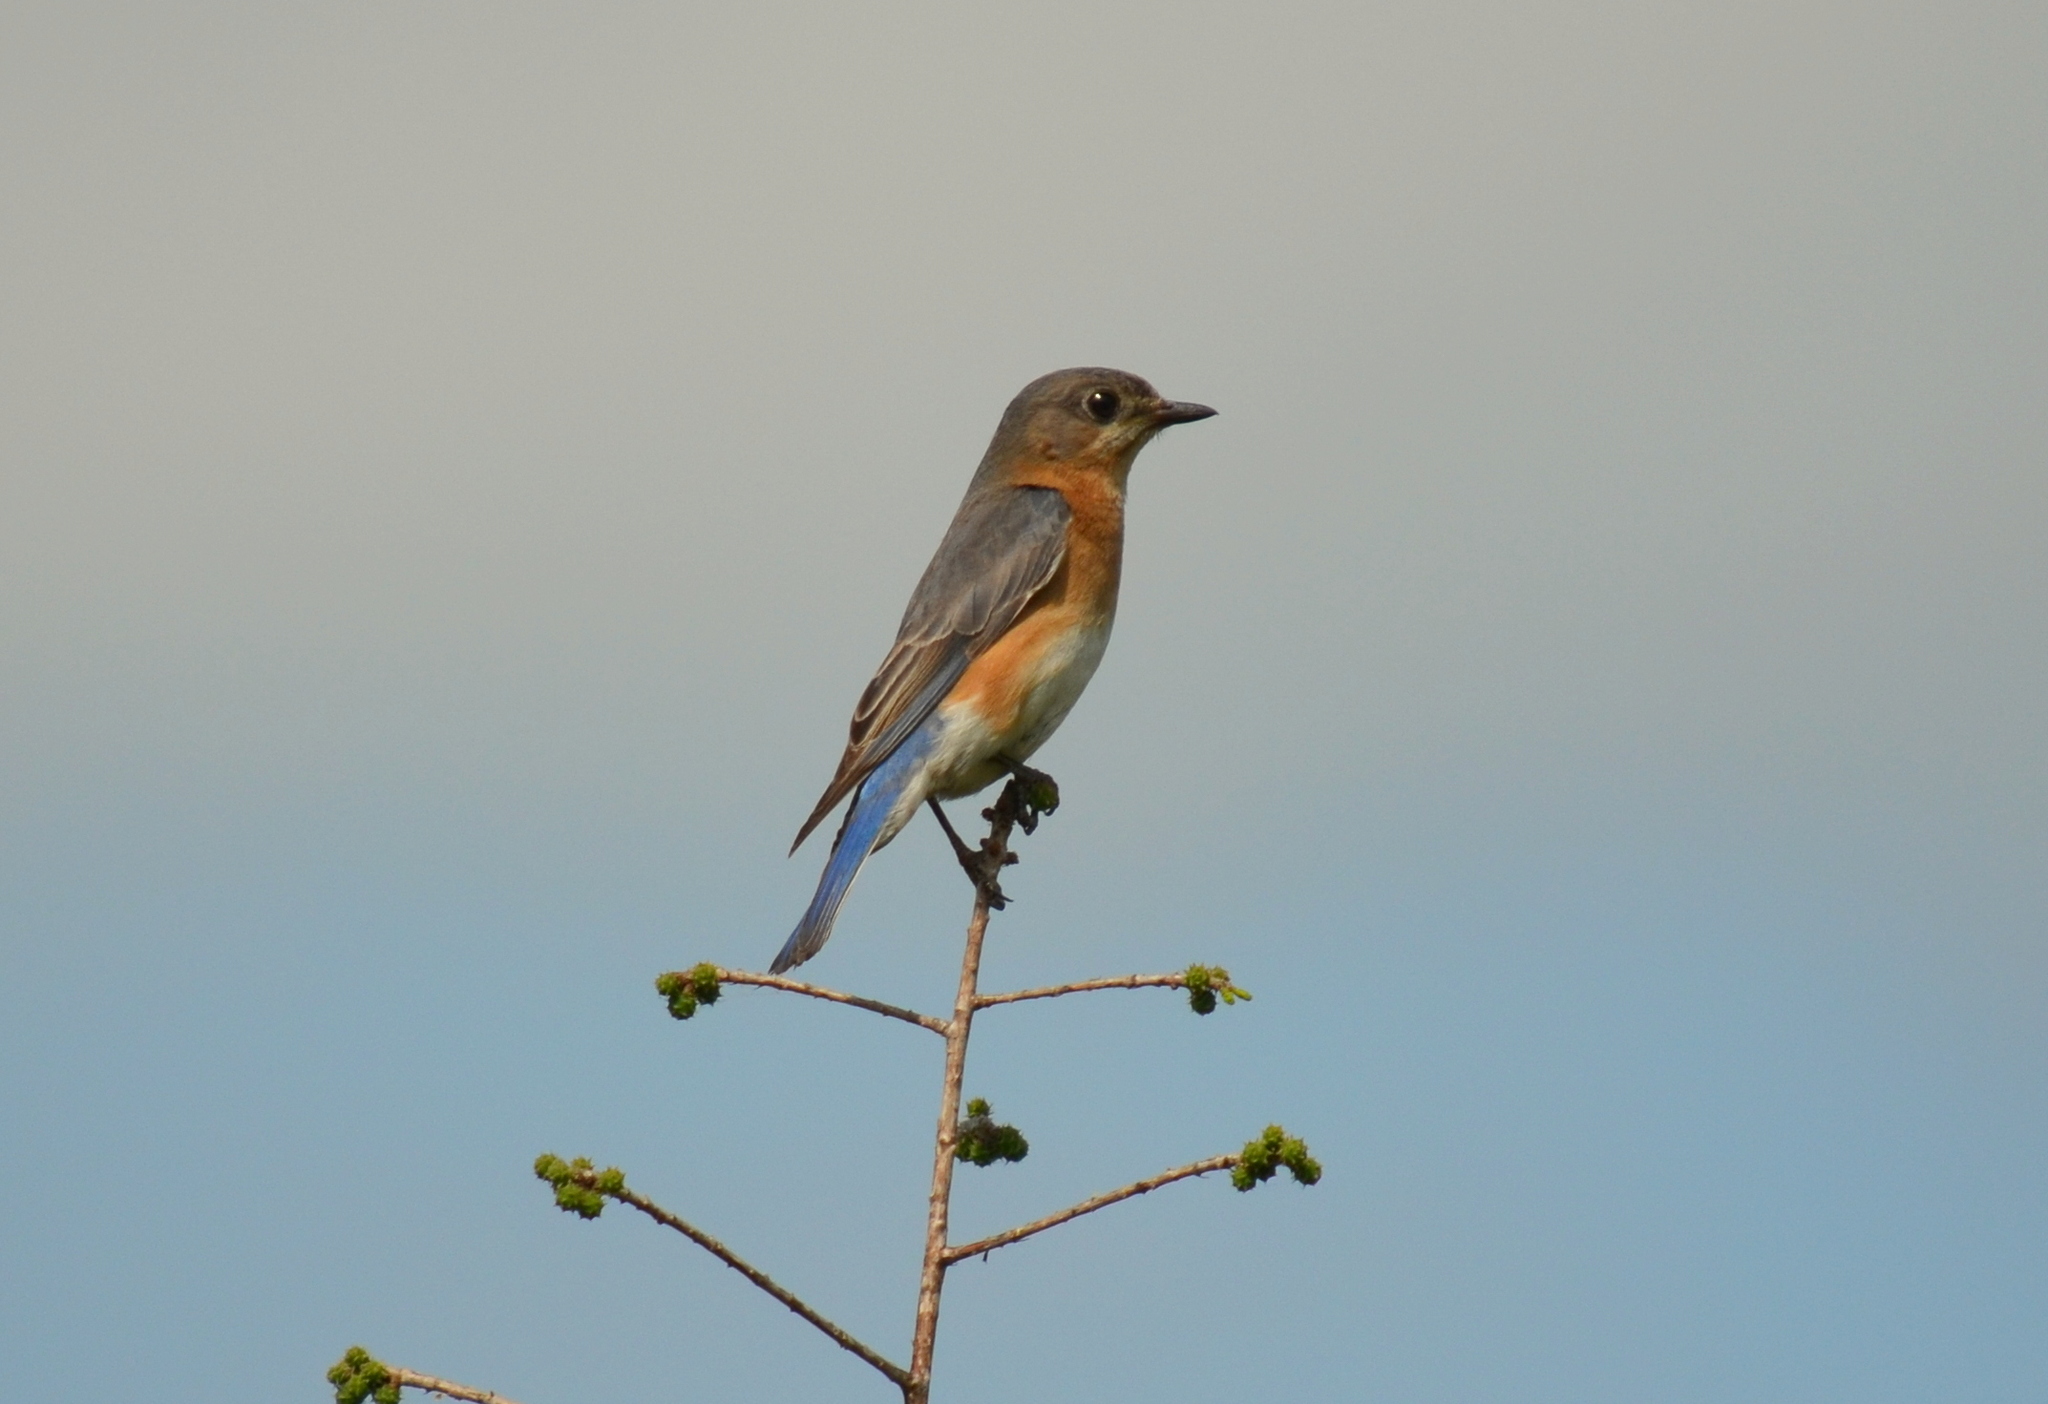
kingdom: Animalia
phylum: Chordata
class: Aves
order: Passeriformes
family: Turdidae
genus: Sialia
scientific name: Sialia sialis
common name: Eastern bluebird
